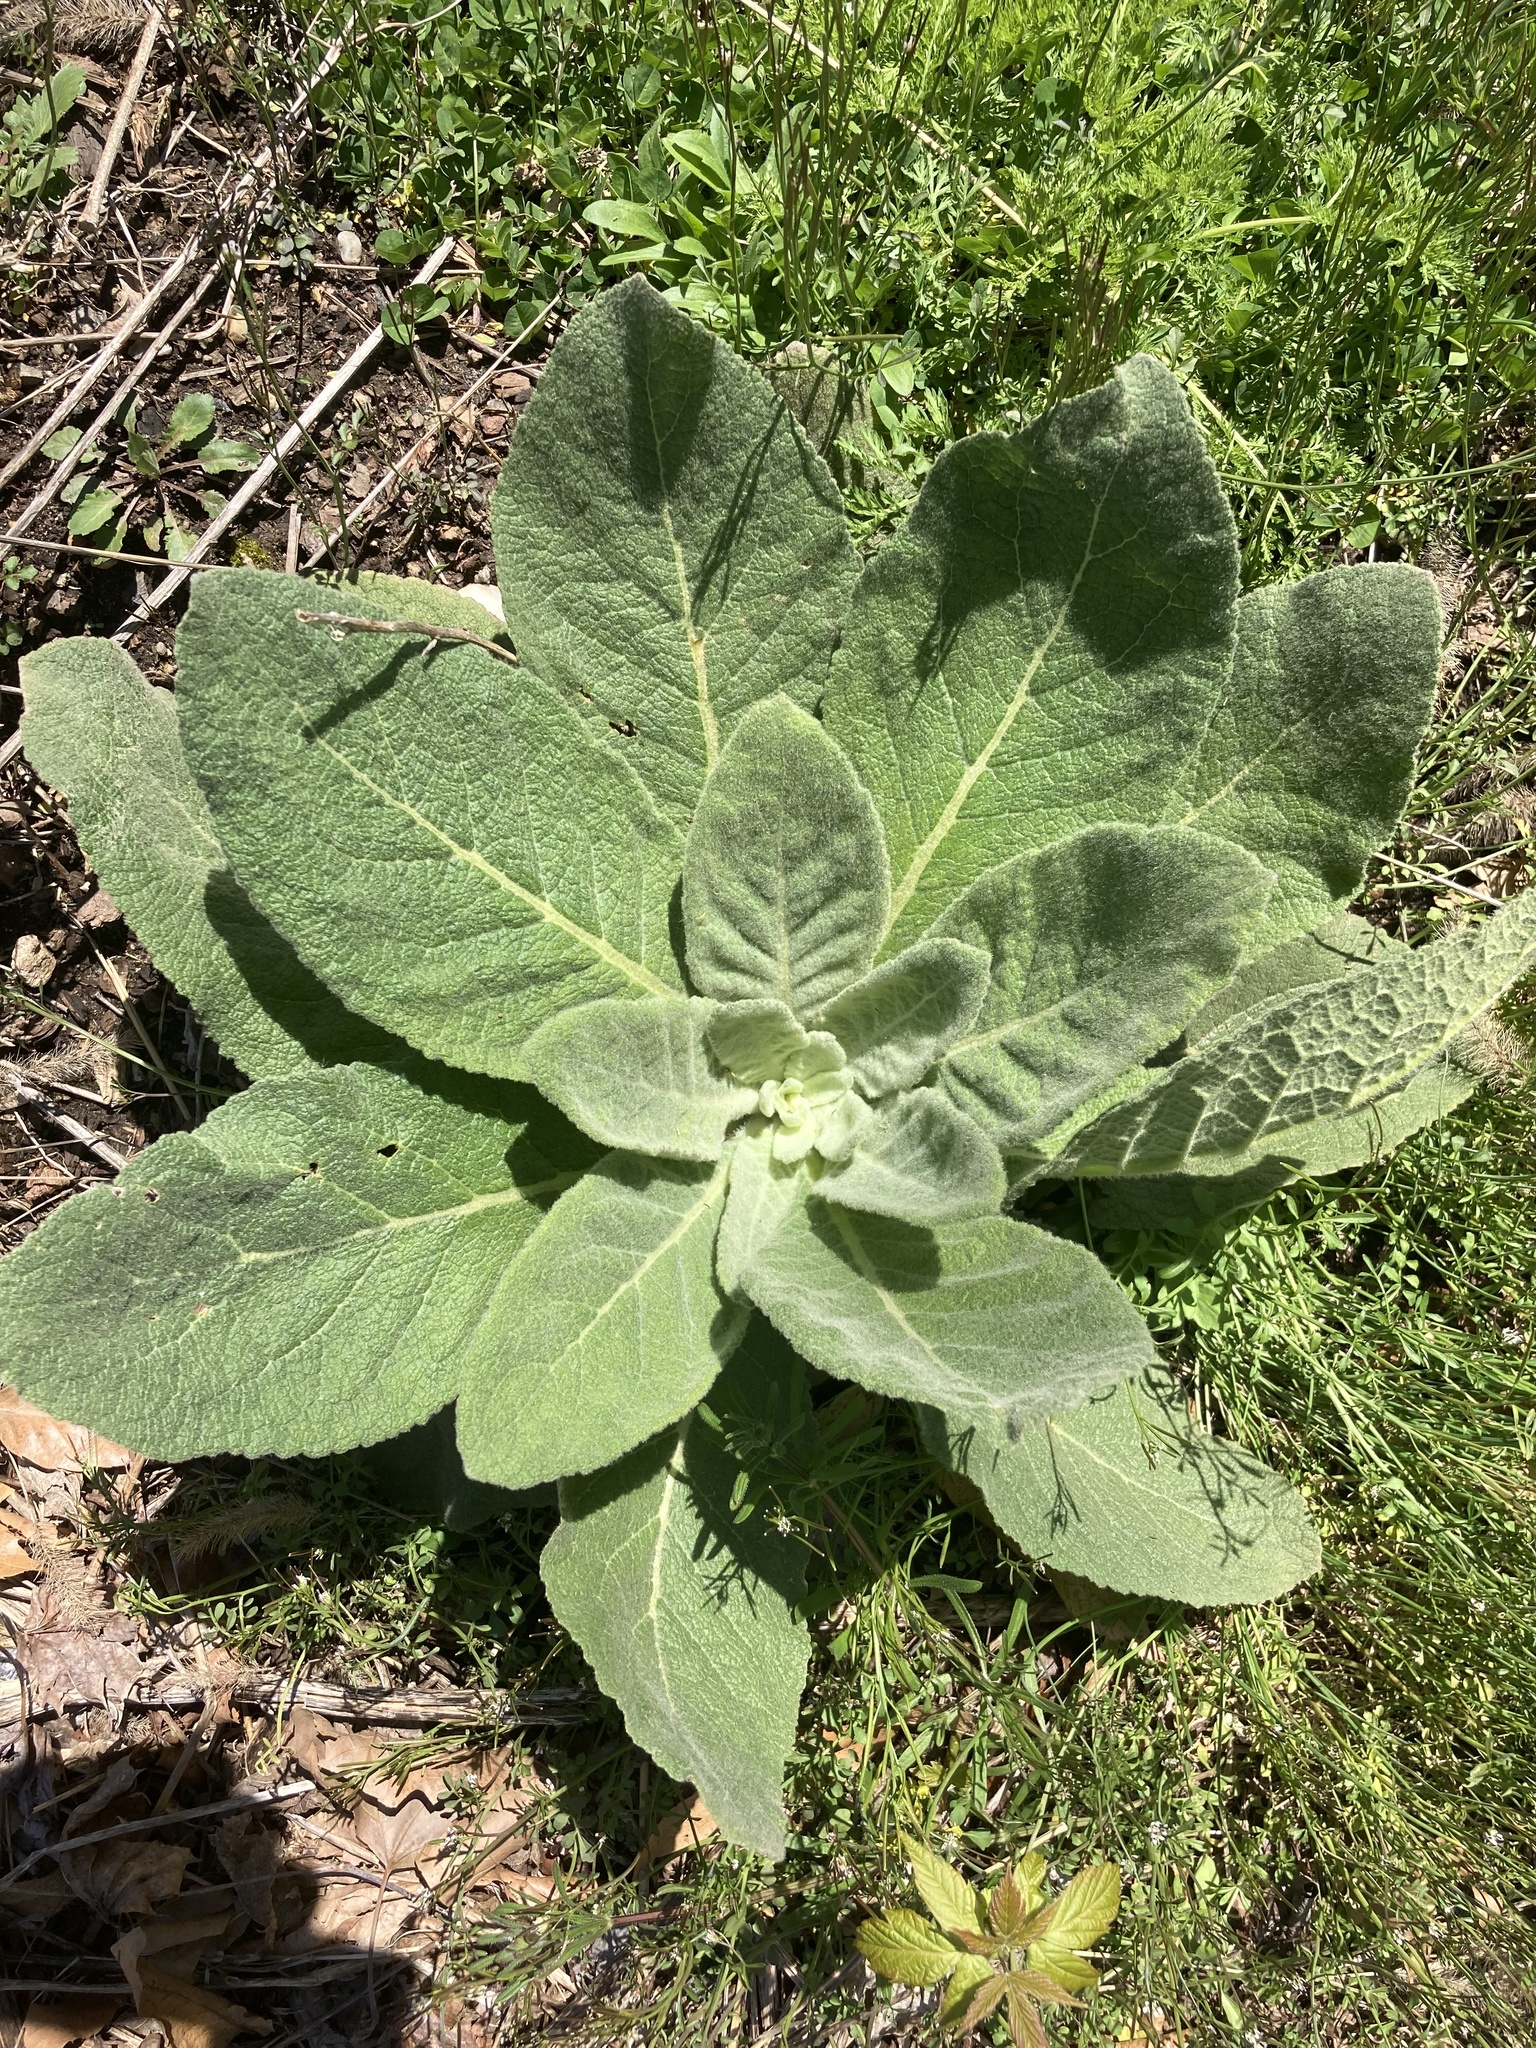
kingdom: Plantae
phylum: Tracheophyta
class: Magnoliopsida
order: Lamiales
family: Scrophulariaceae
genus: Verbascum
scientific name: Verbascum thapsus
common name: Common mullein
